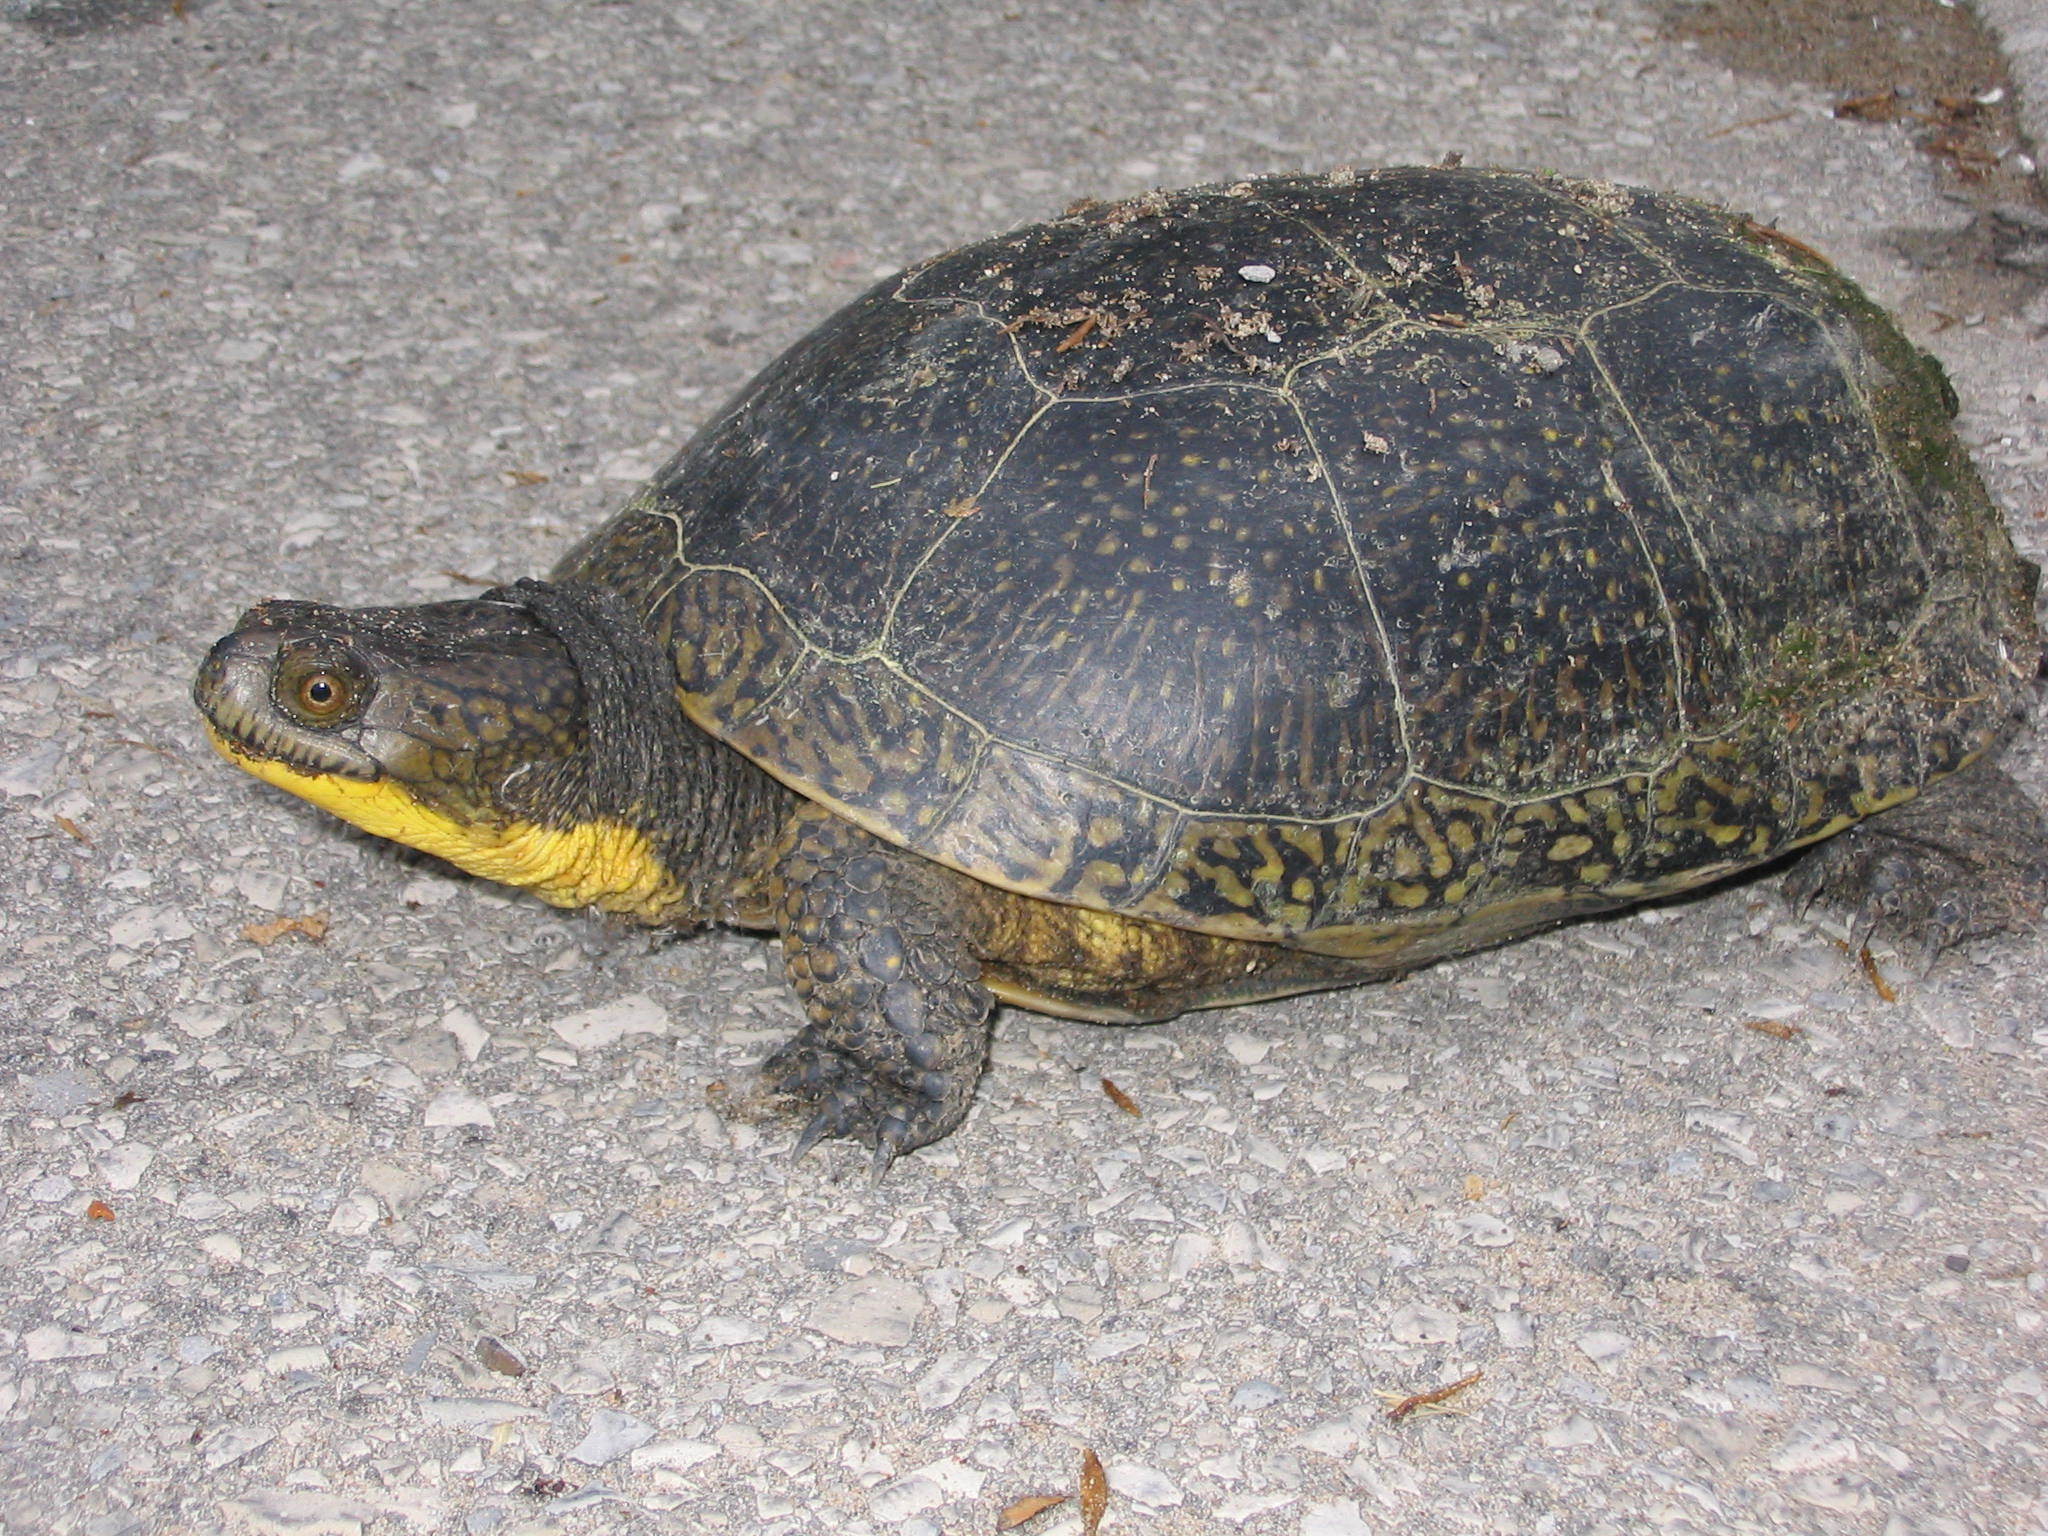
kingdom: Animalia
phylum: Chordata
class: Testudines
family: Emydidae
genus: Emys
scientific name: Emys blandingii
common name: Blanding's turtle
